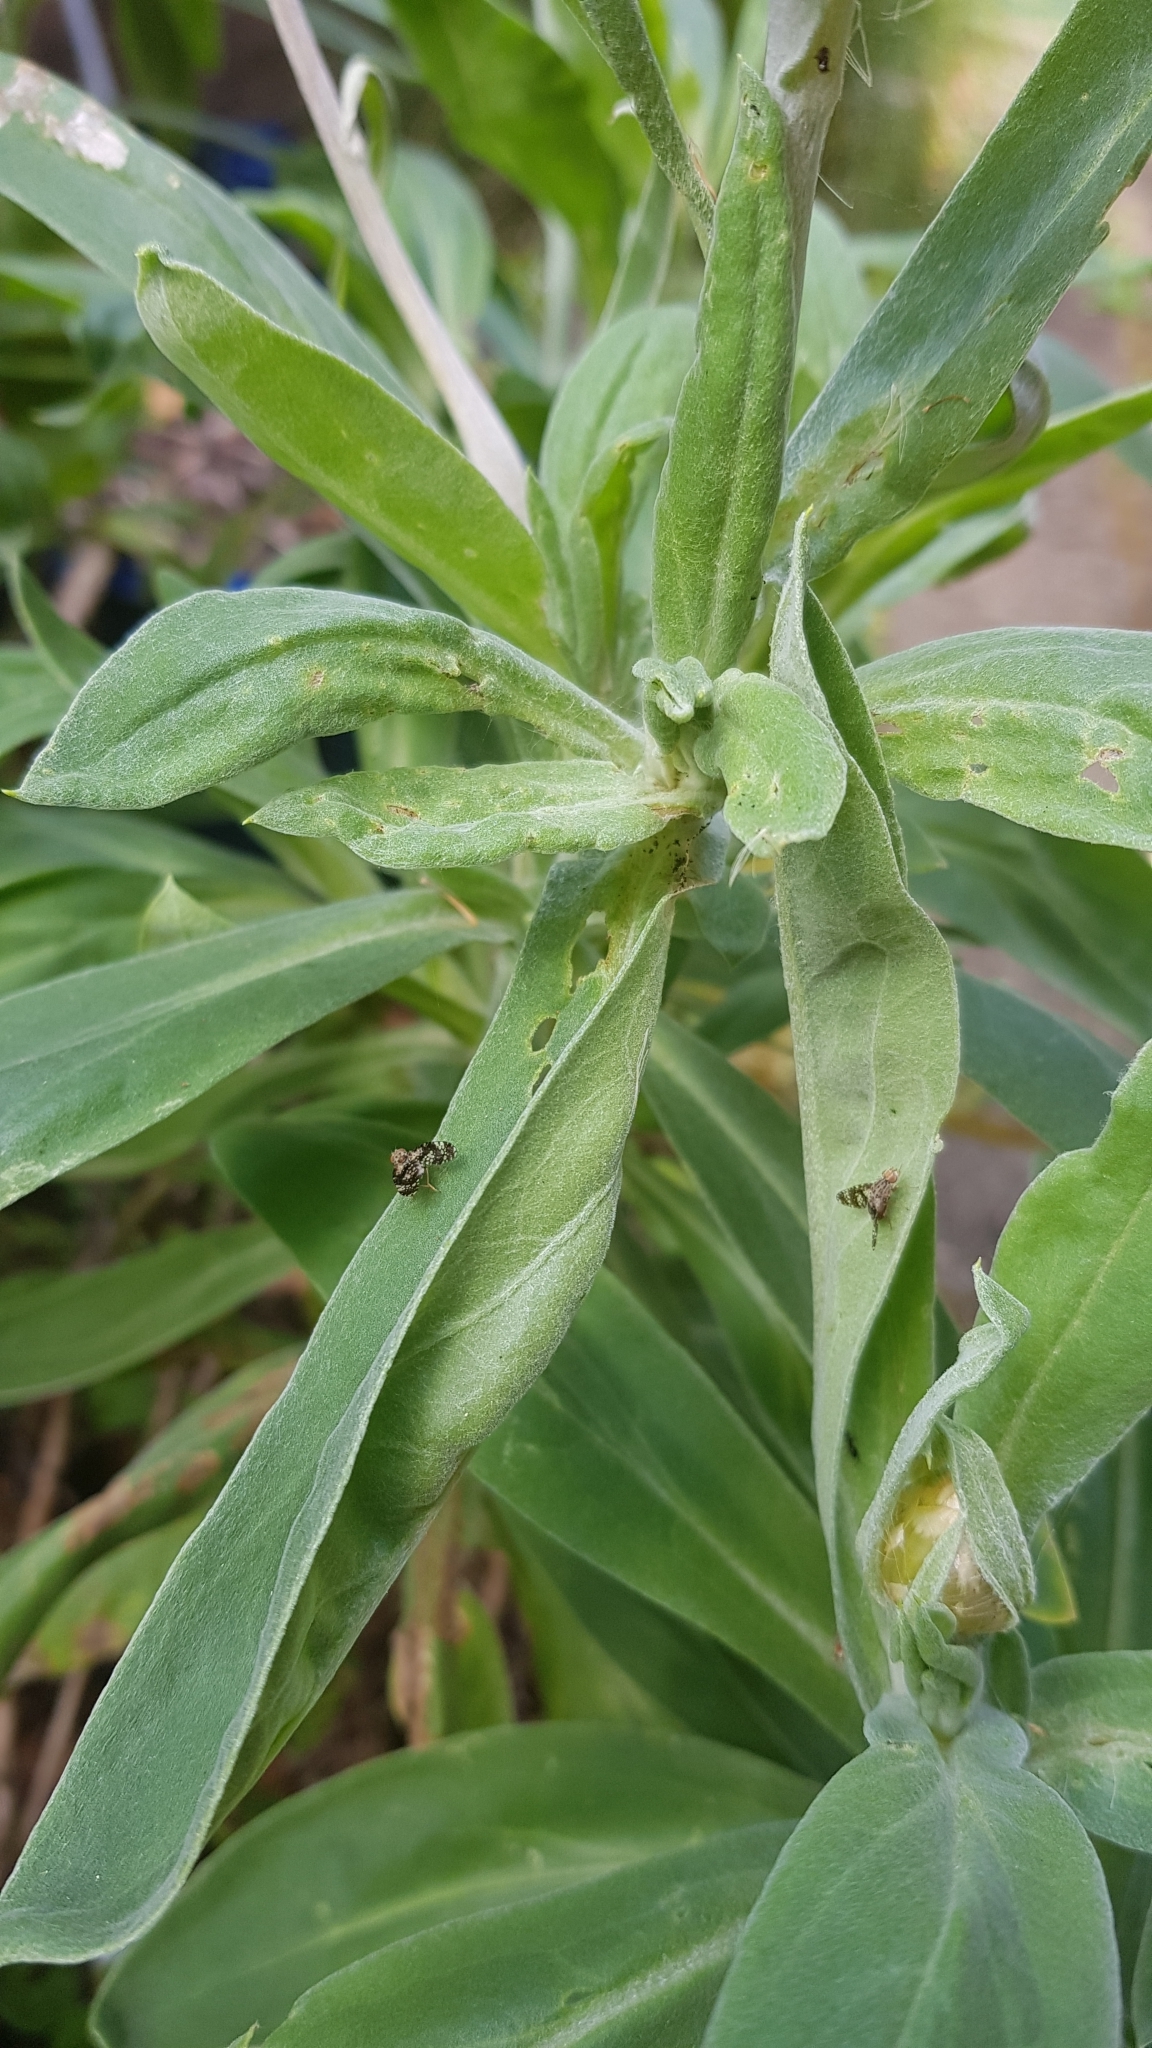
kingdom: Animalia
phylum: Arthropoda
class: Insecta
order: Diptera
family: Tephritidae
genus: Austrotephritis
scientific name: Austrotephritis
